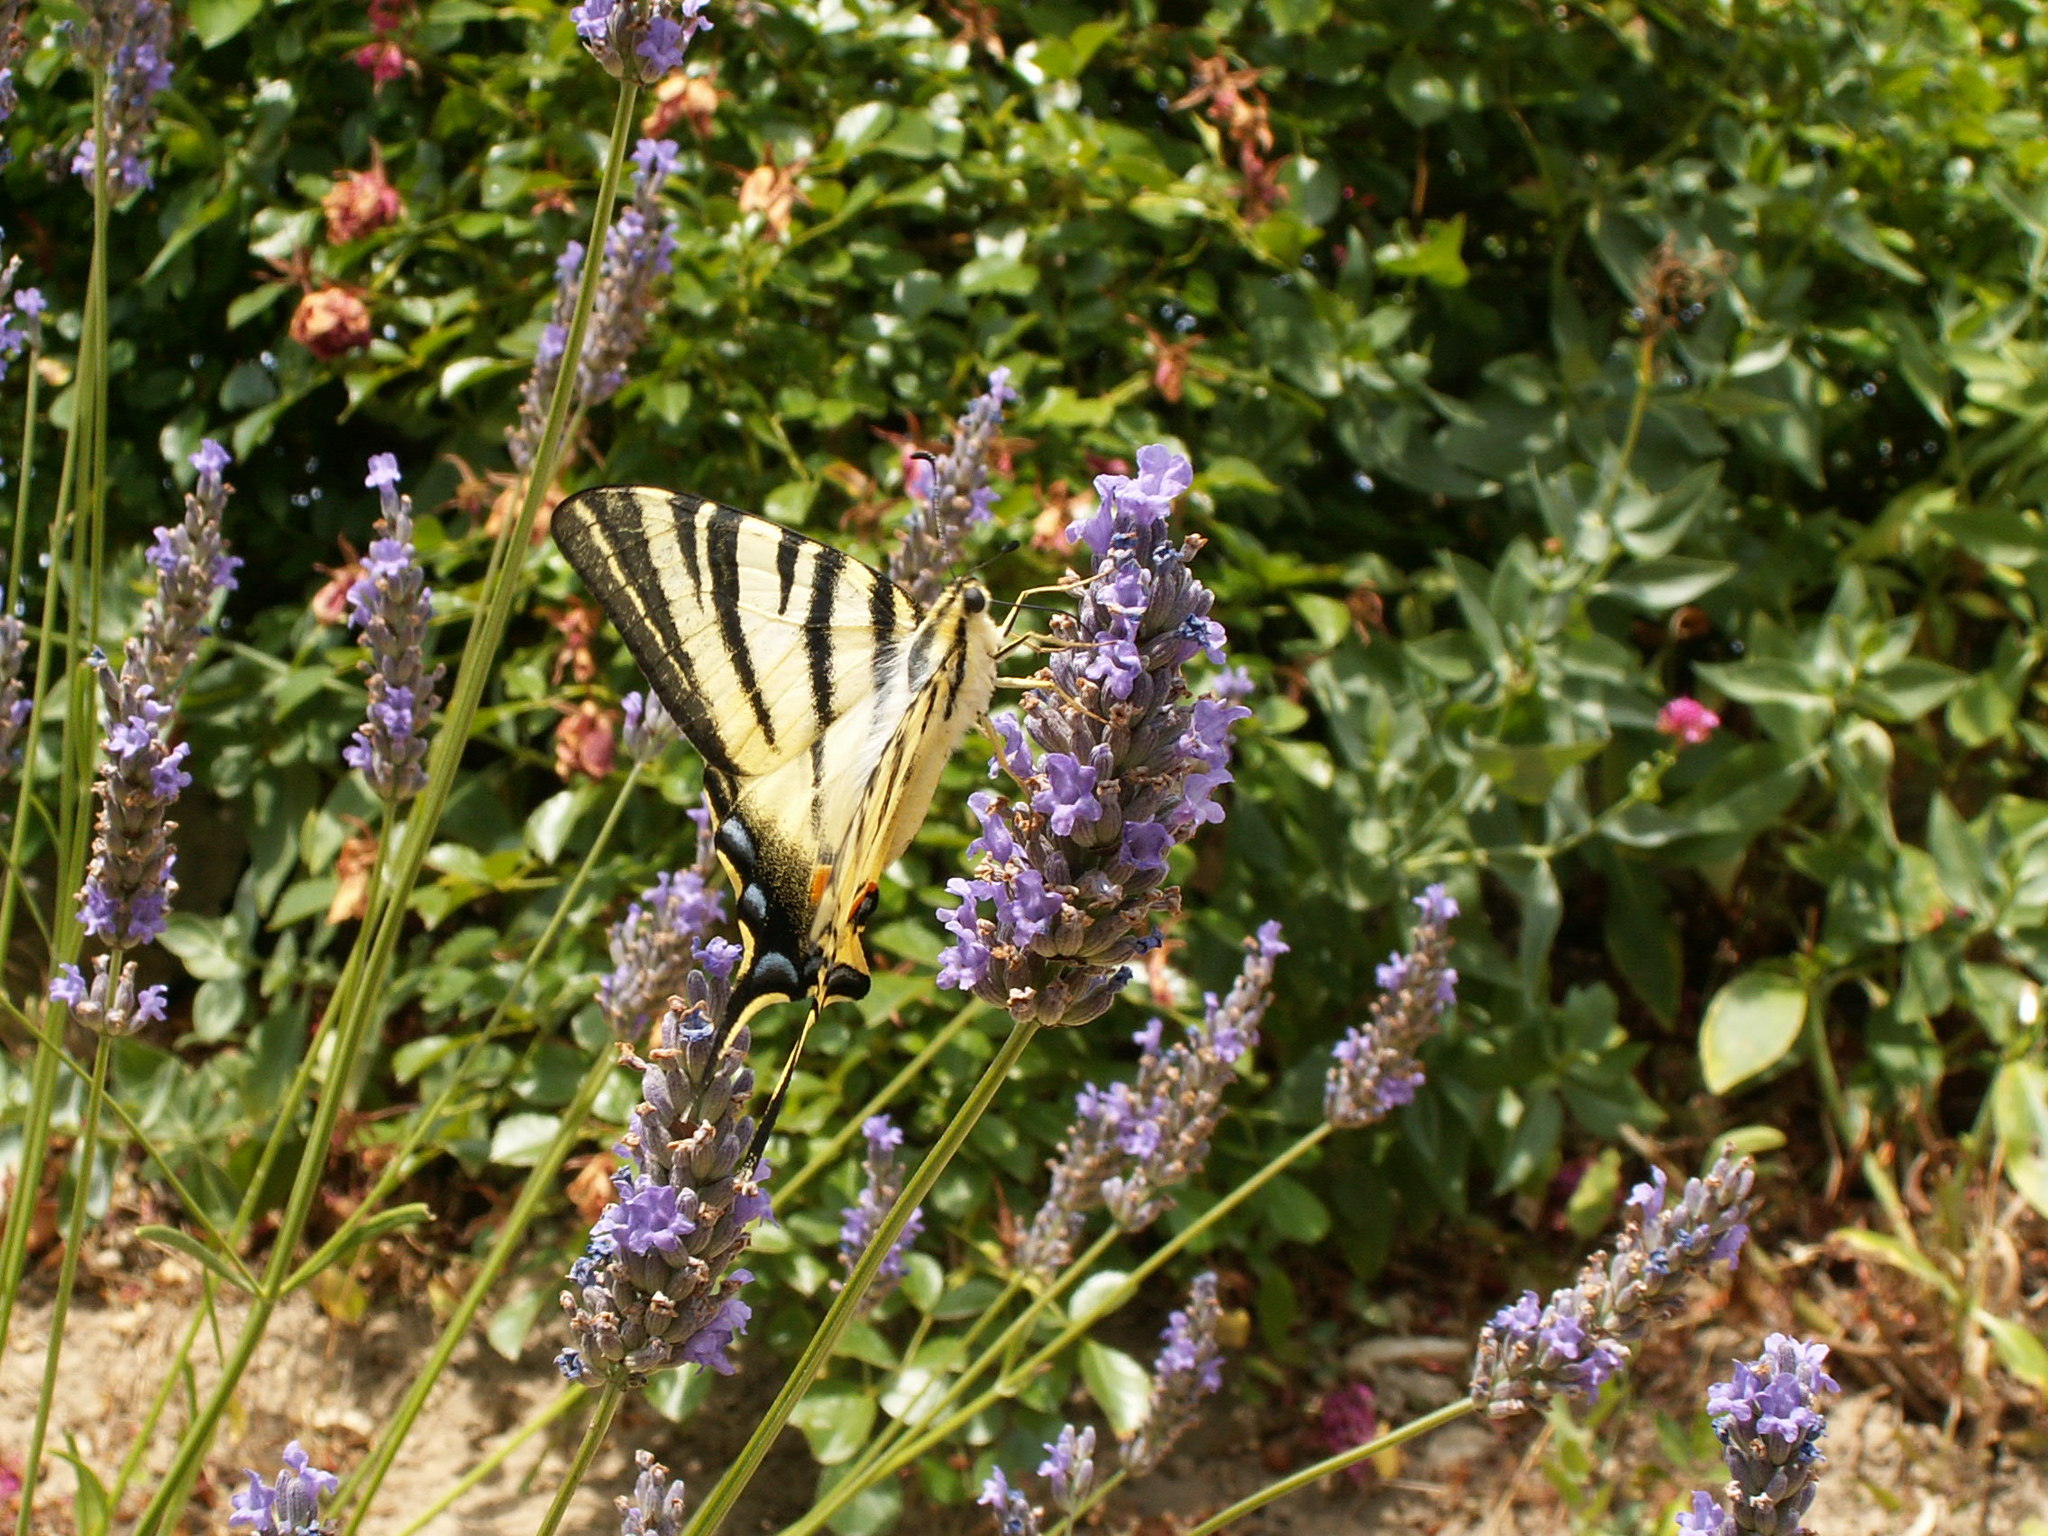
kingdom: Animalia
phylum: Arthropoda
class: Insecta
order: Lepidoptera
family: Papilionidae
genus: Iphiclides
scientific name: Iphiclides podalirius
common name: Scarce swallowtail
